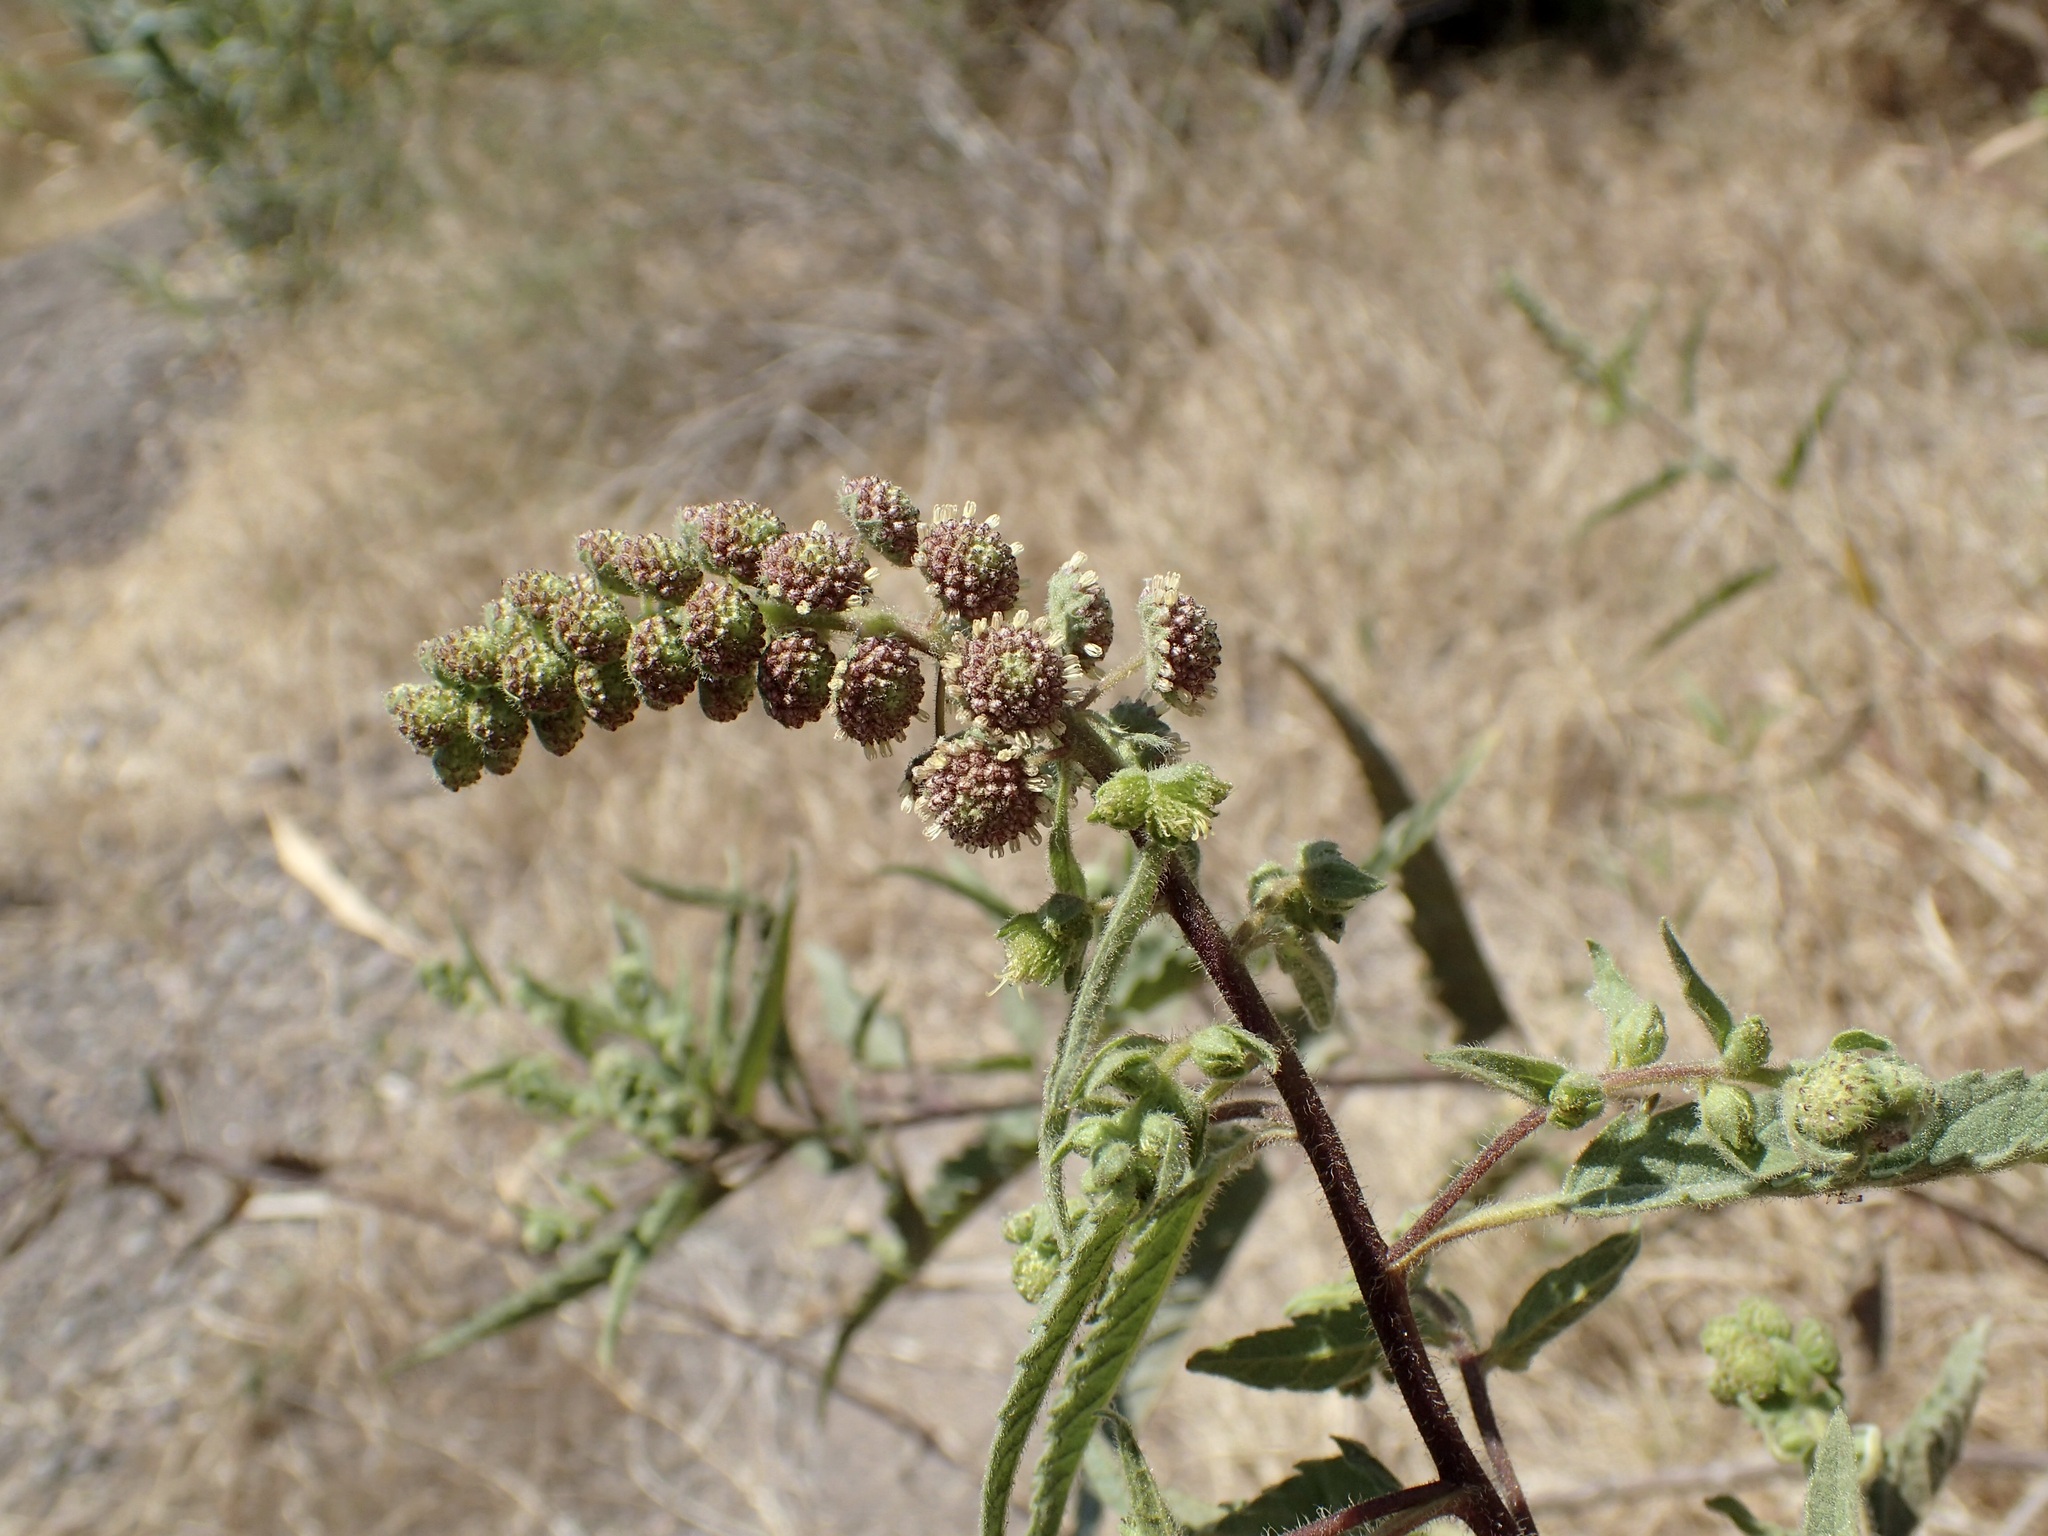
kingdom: Plantae
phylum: Tracheophyta
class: Magnoliopsida
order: Asterales
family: Asteraceae
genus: Ambrosia
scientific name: Ambrosia ambrosioides
